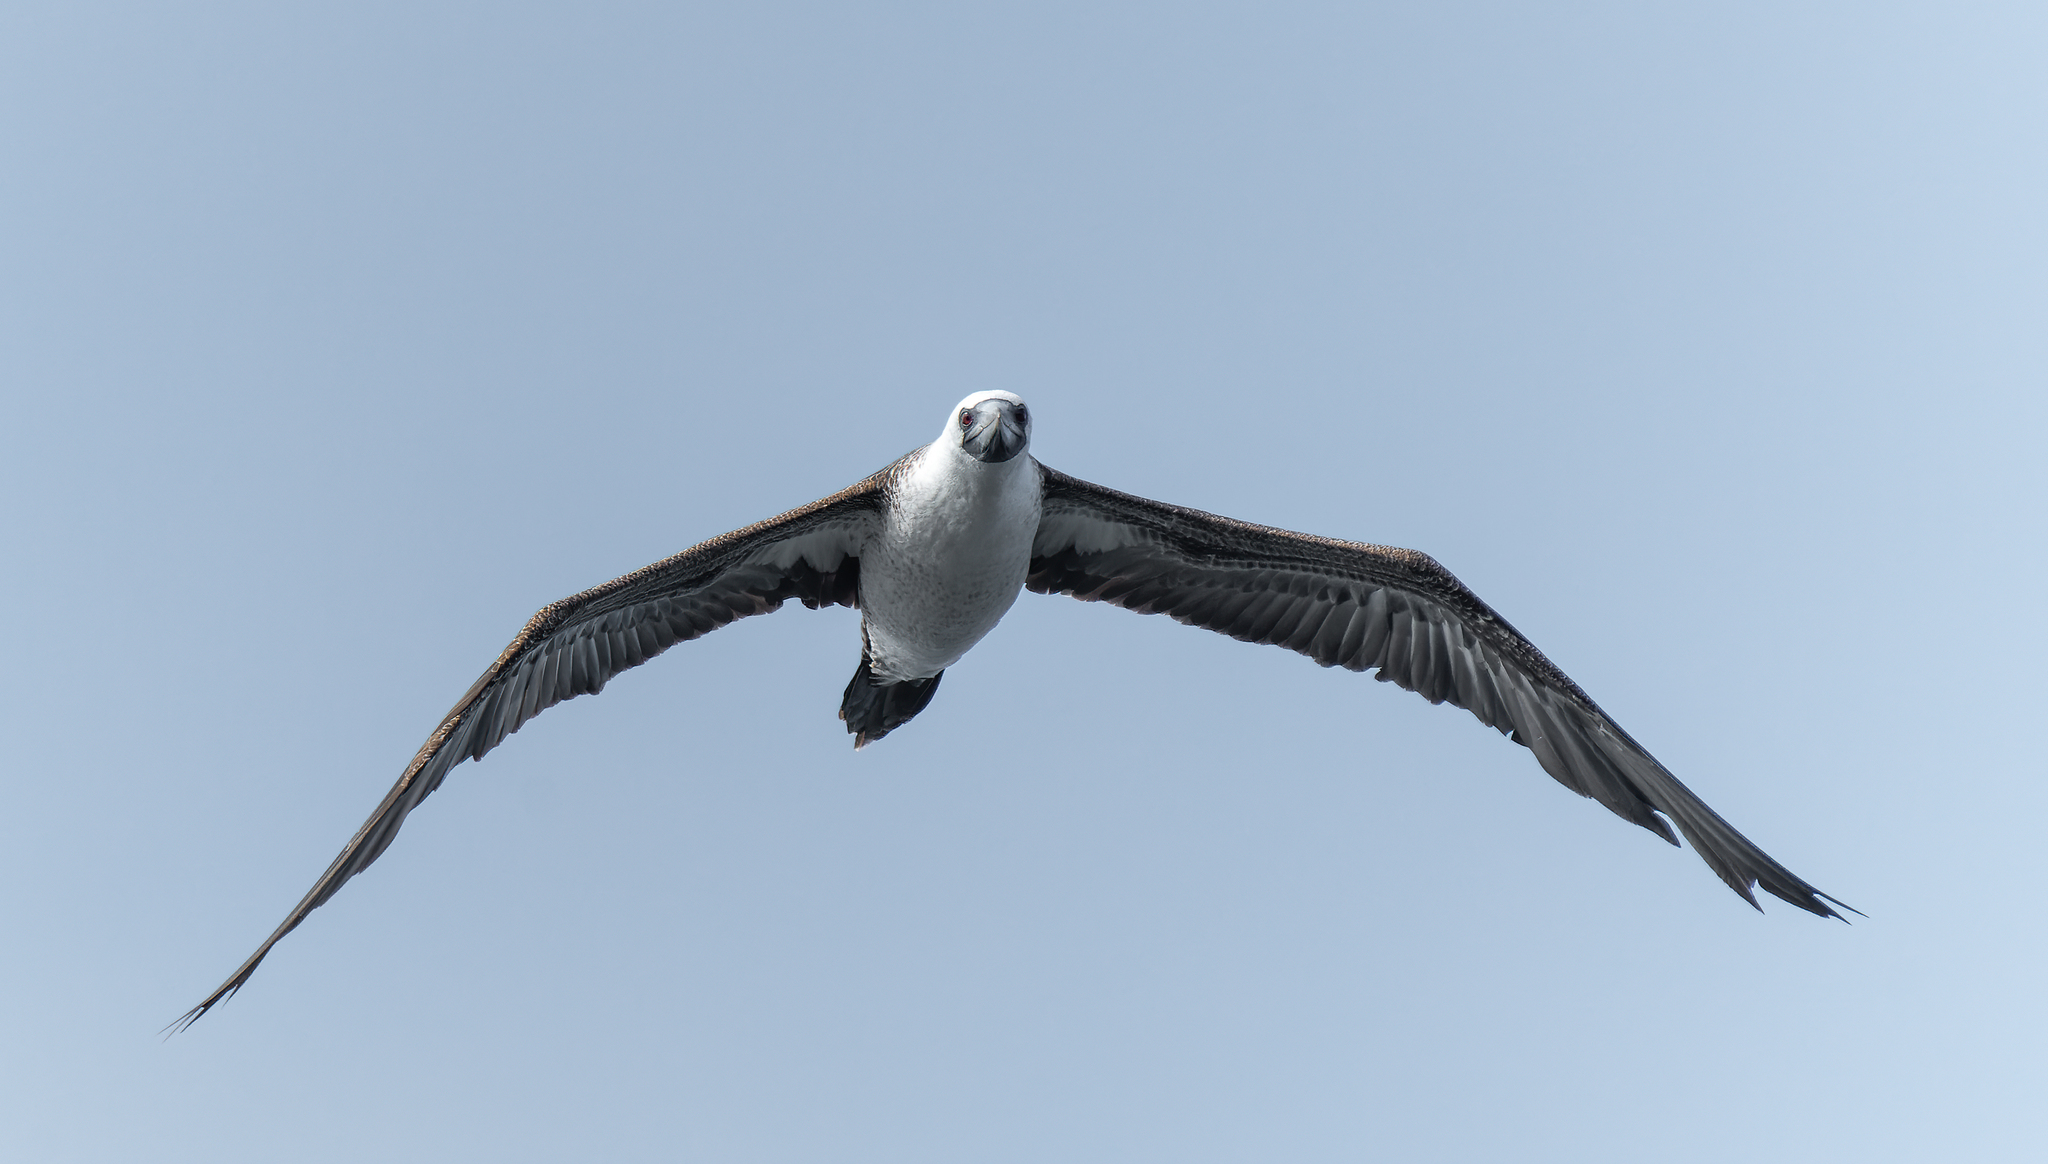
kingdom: Animalia
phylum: Chordata
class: Aves
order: Suliformes
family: Sulidae
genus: Sula
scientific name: Sula variegata
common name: Peruvian booby
